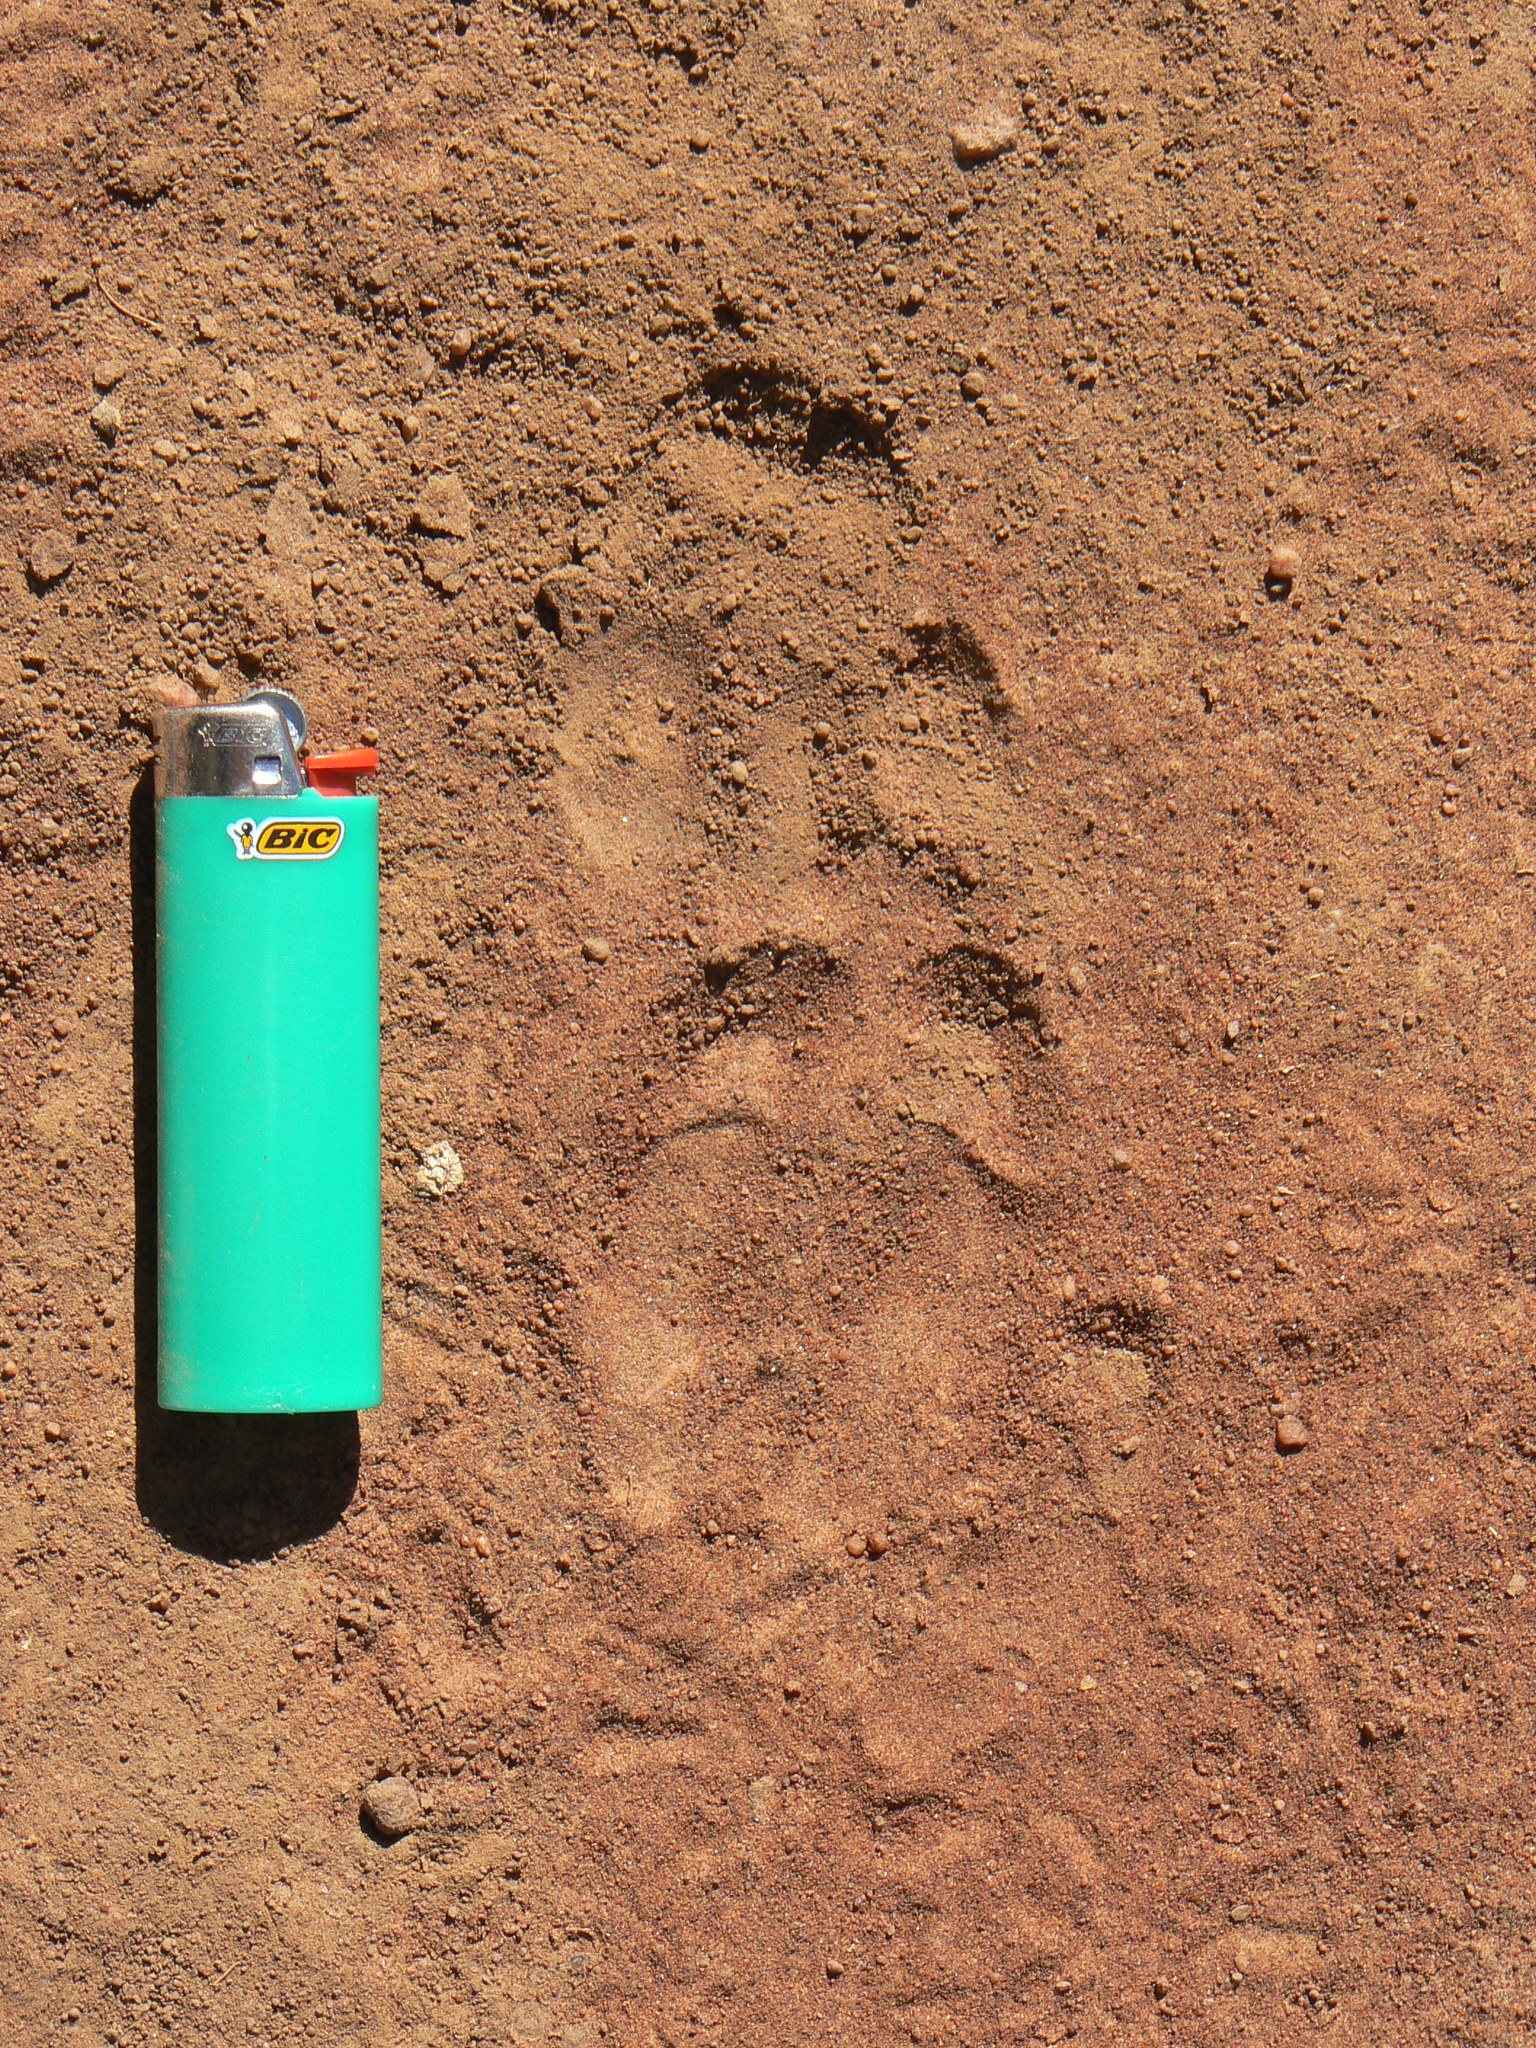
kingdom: Animalia
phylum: Chordata
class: Mammalia
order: Tubulidentata
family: Orycteropodidae
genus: Orycteropus
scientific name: Orycteropus afer
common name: Aardvark
